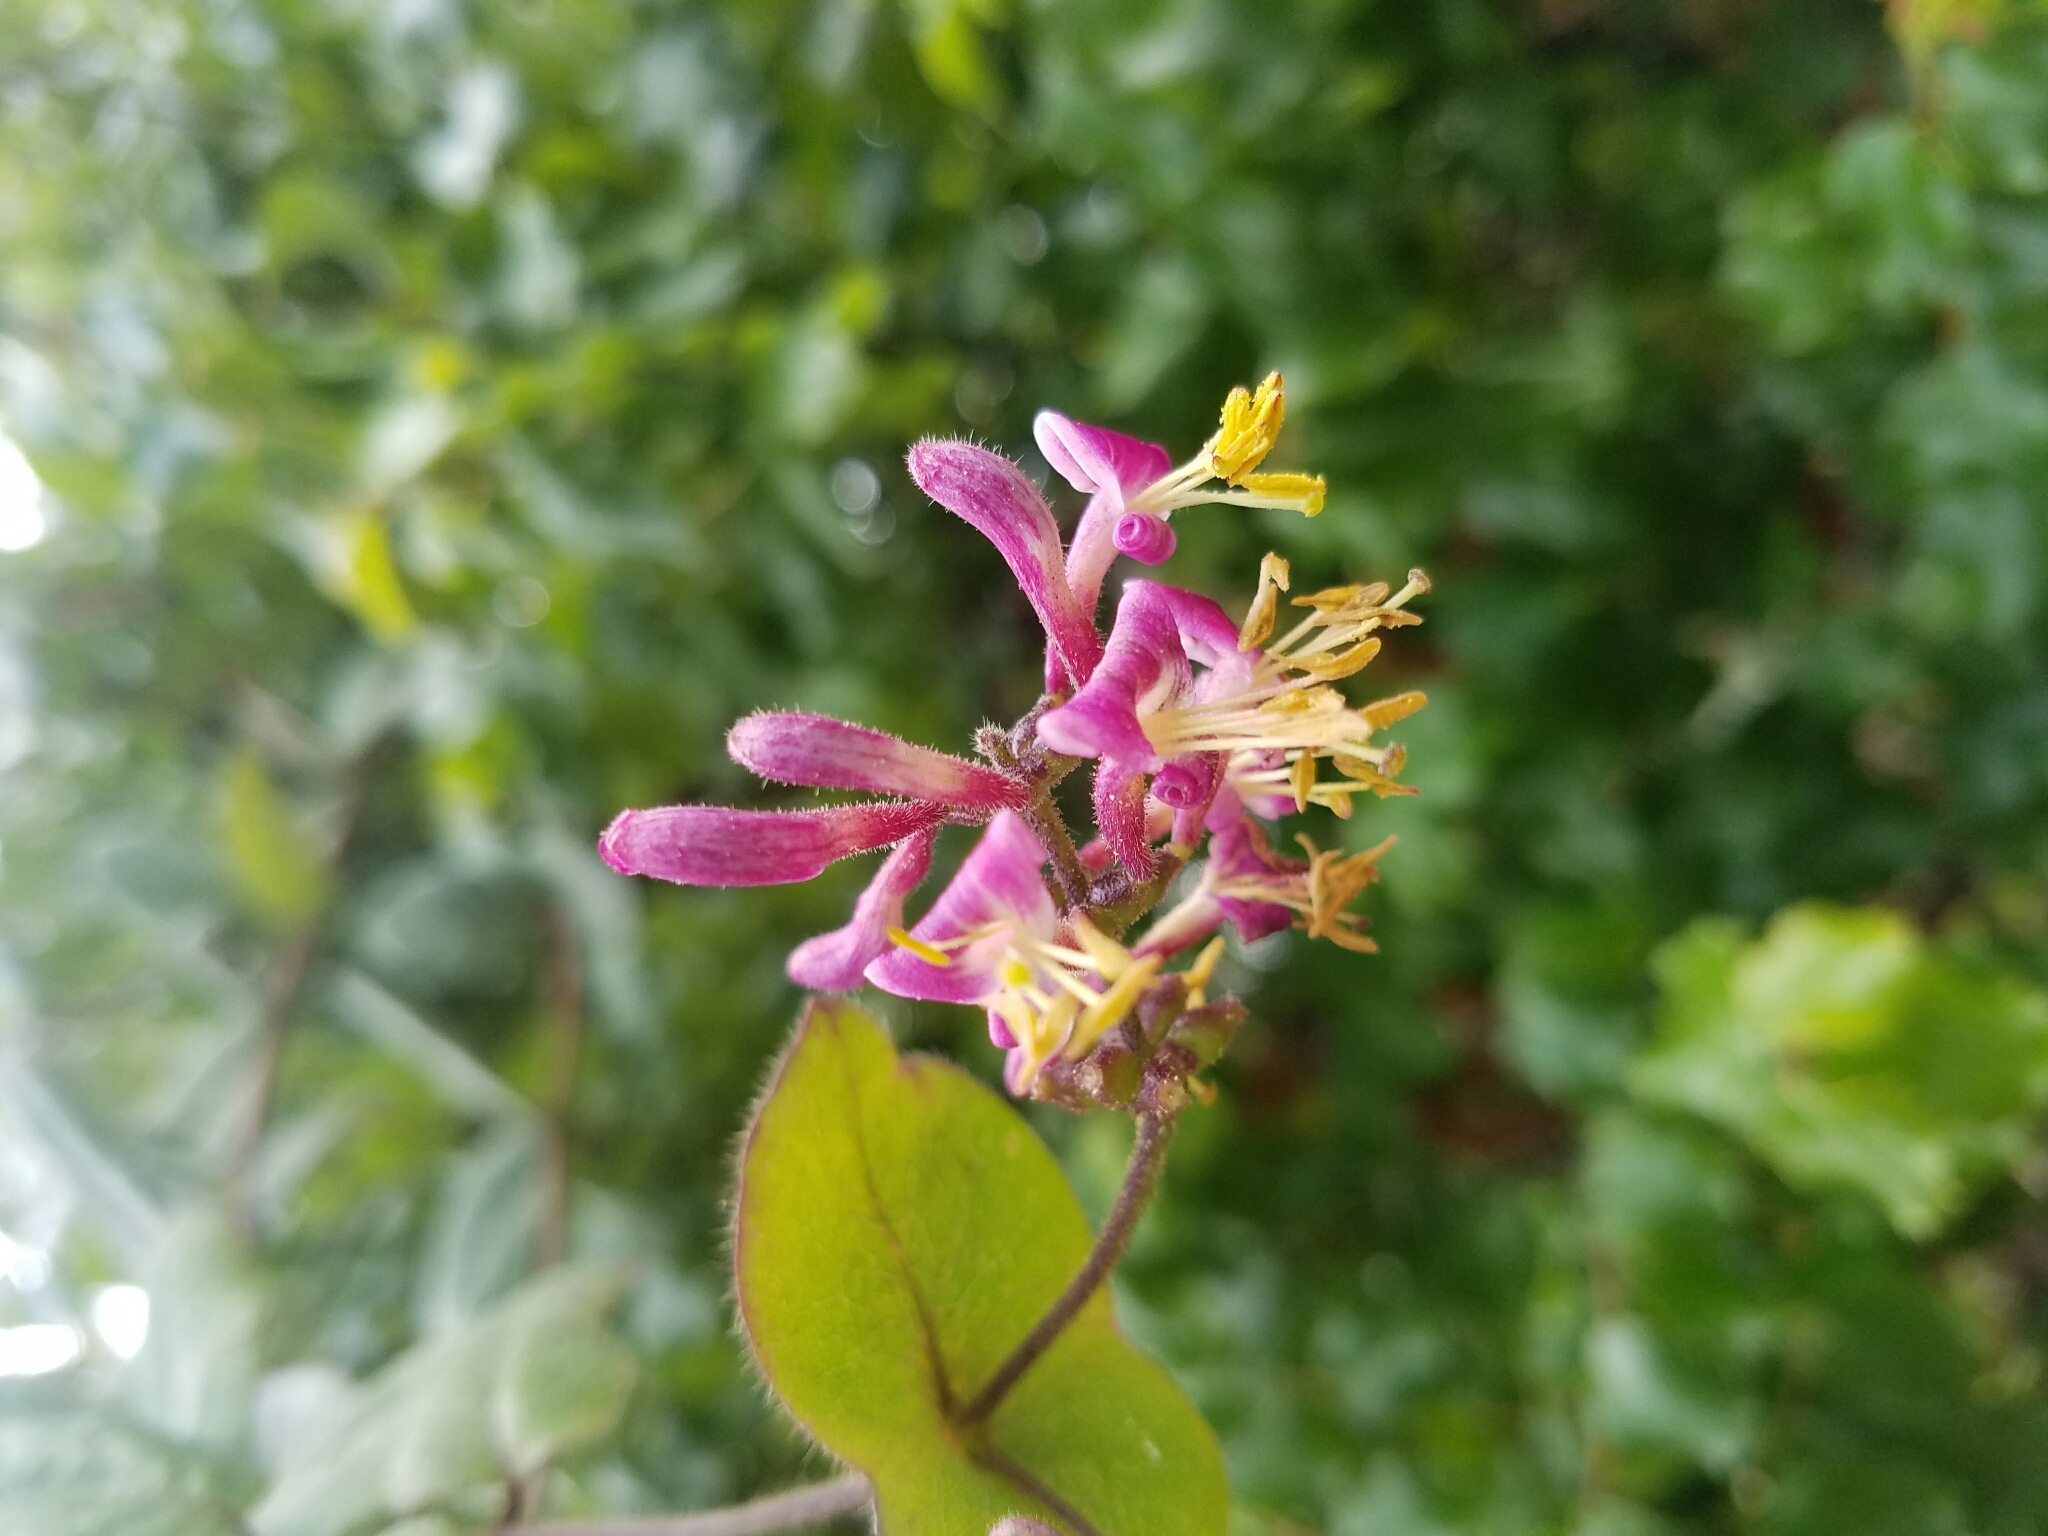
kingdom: Plantae
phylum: Tracheophyta
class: Magnoliopsida
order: Dipsacales
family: Caprifoliaceae
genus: Lonicera
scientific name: Lonicera hispidula
